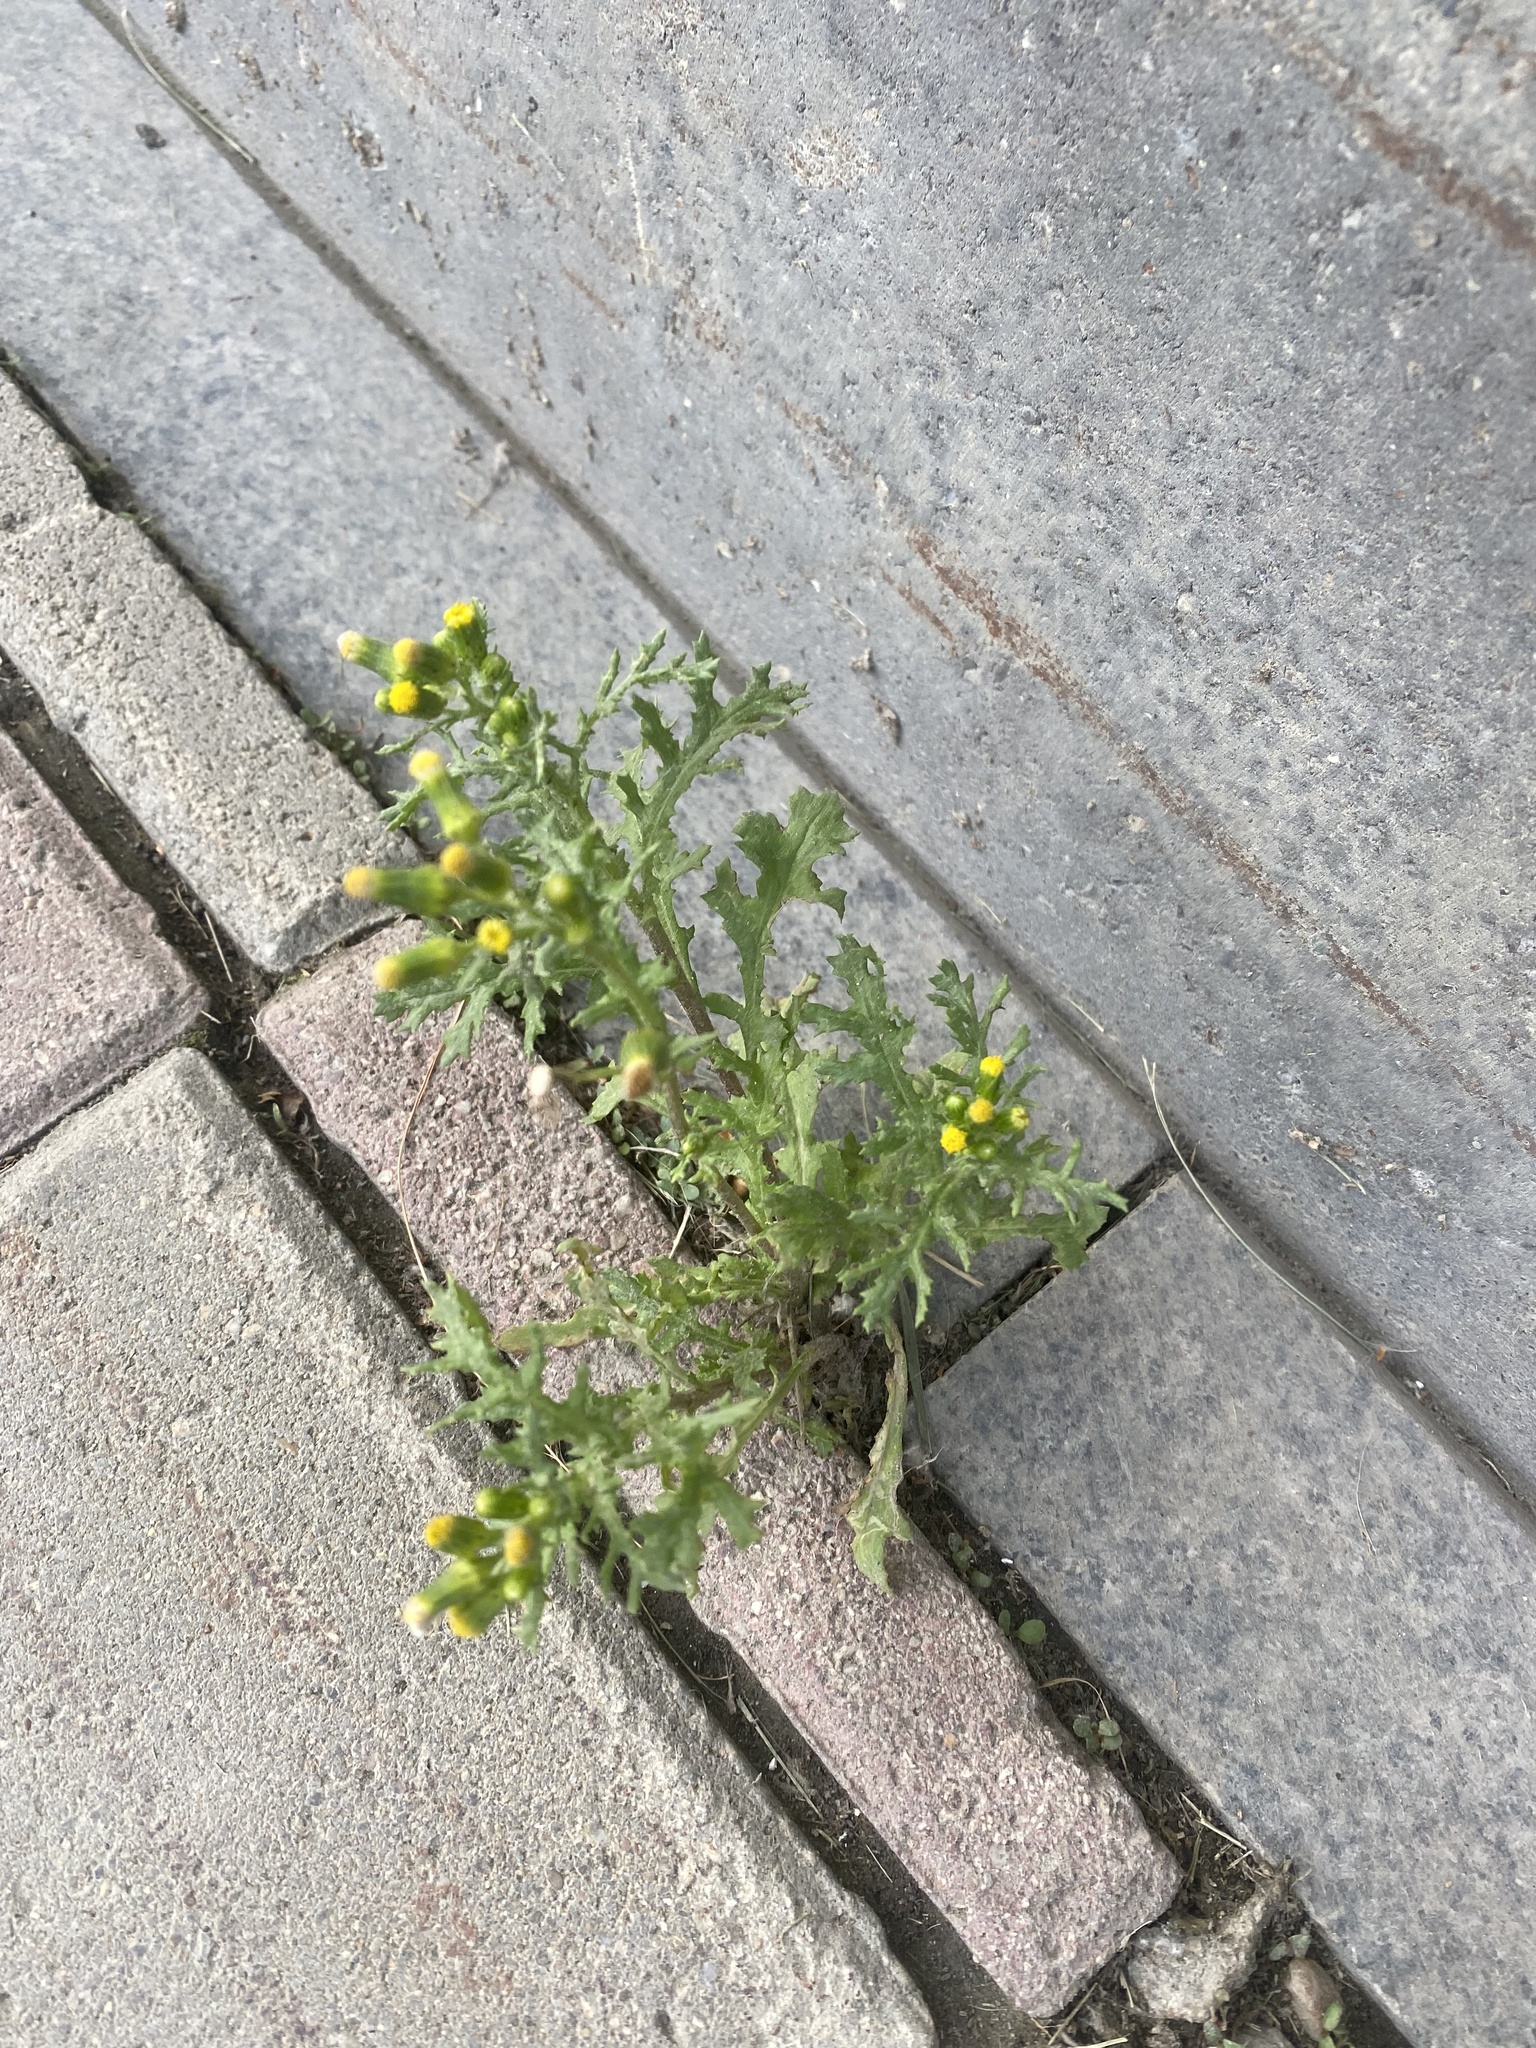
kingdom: Plantae
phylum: Tracheophyta
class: Magnoliopsida
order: Asterales
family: Asteraceae
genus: Senecio
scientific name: Senecio vulgaris
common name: Old-man-in-the-spring
